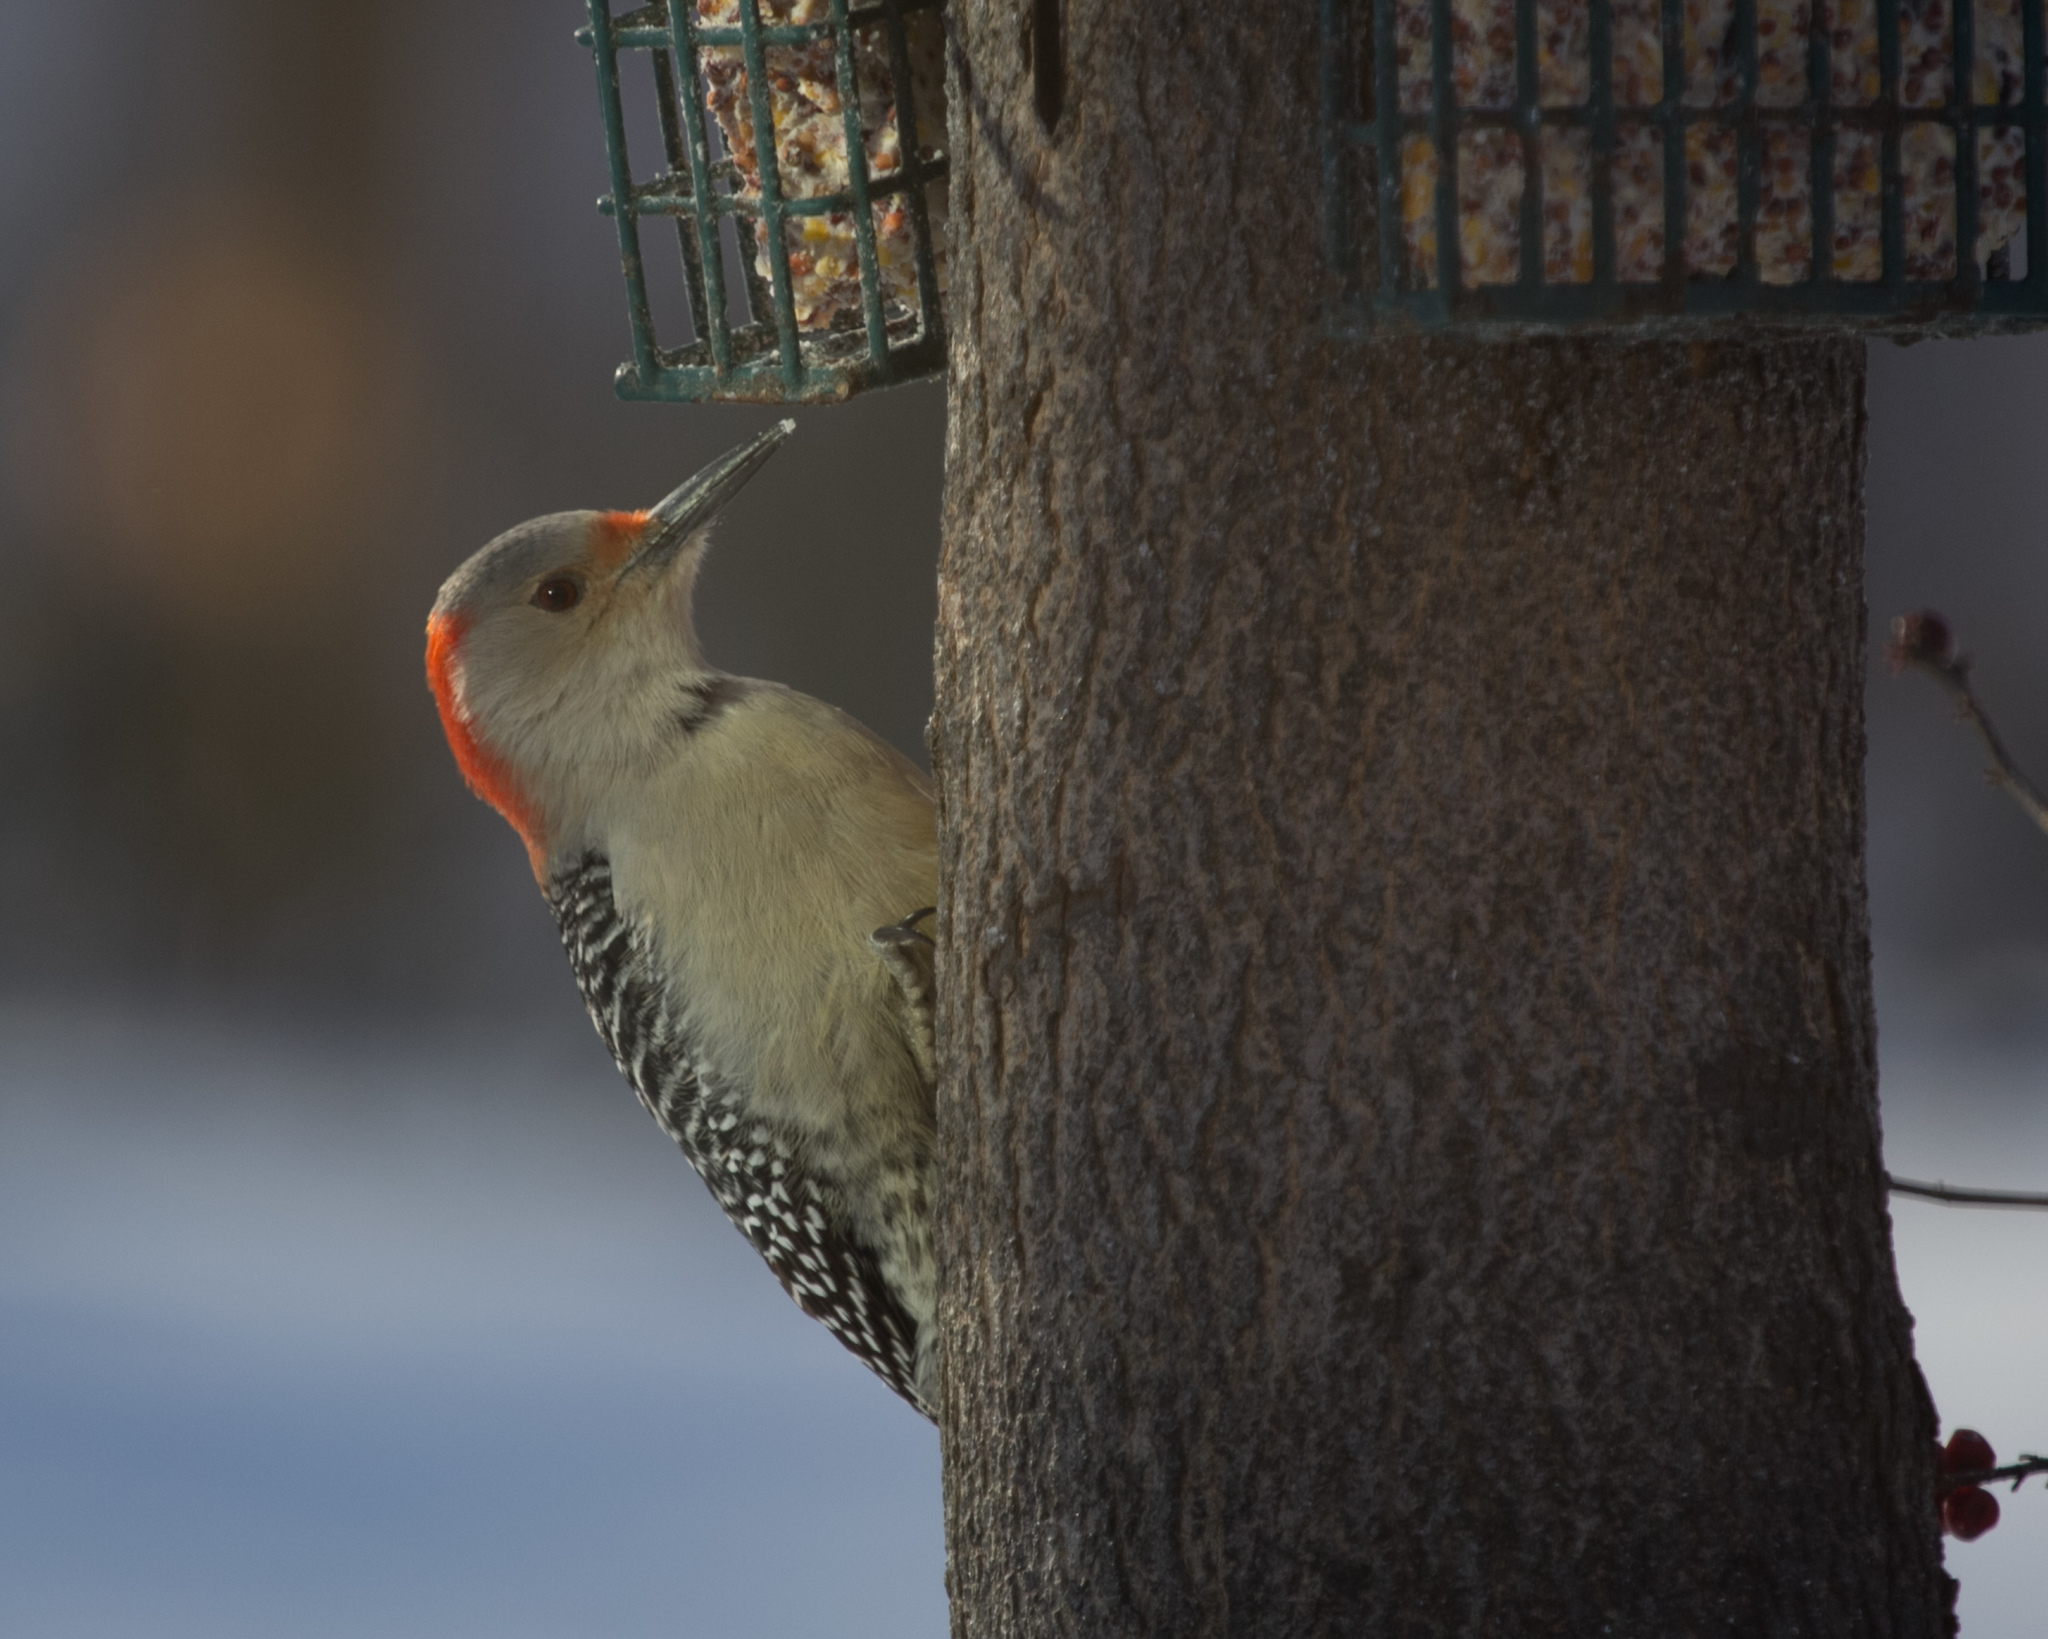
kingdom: Animalia
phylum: Chordata
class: Aves
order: Piciformes
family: Picidae
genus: Melanerpes
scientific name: Melanerpes carolinus
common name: Red-bellied woodpecker
